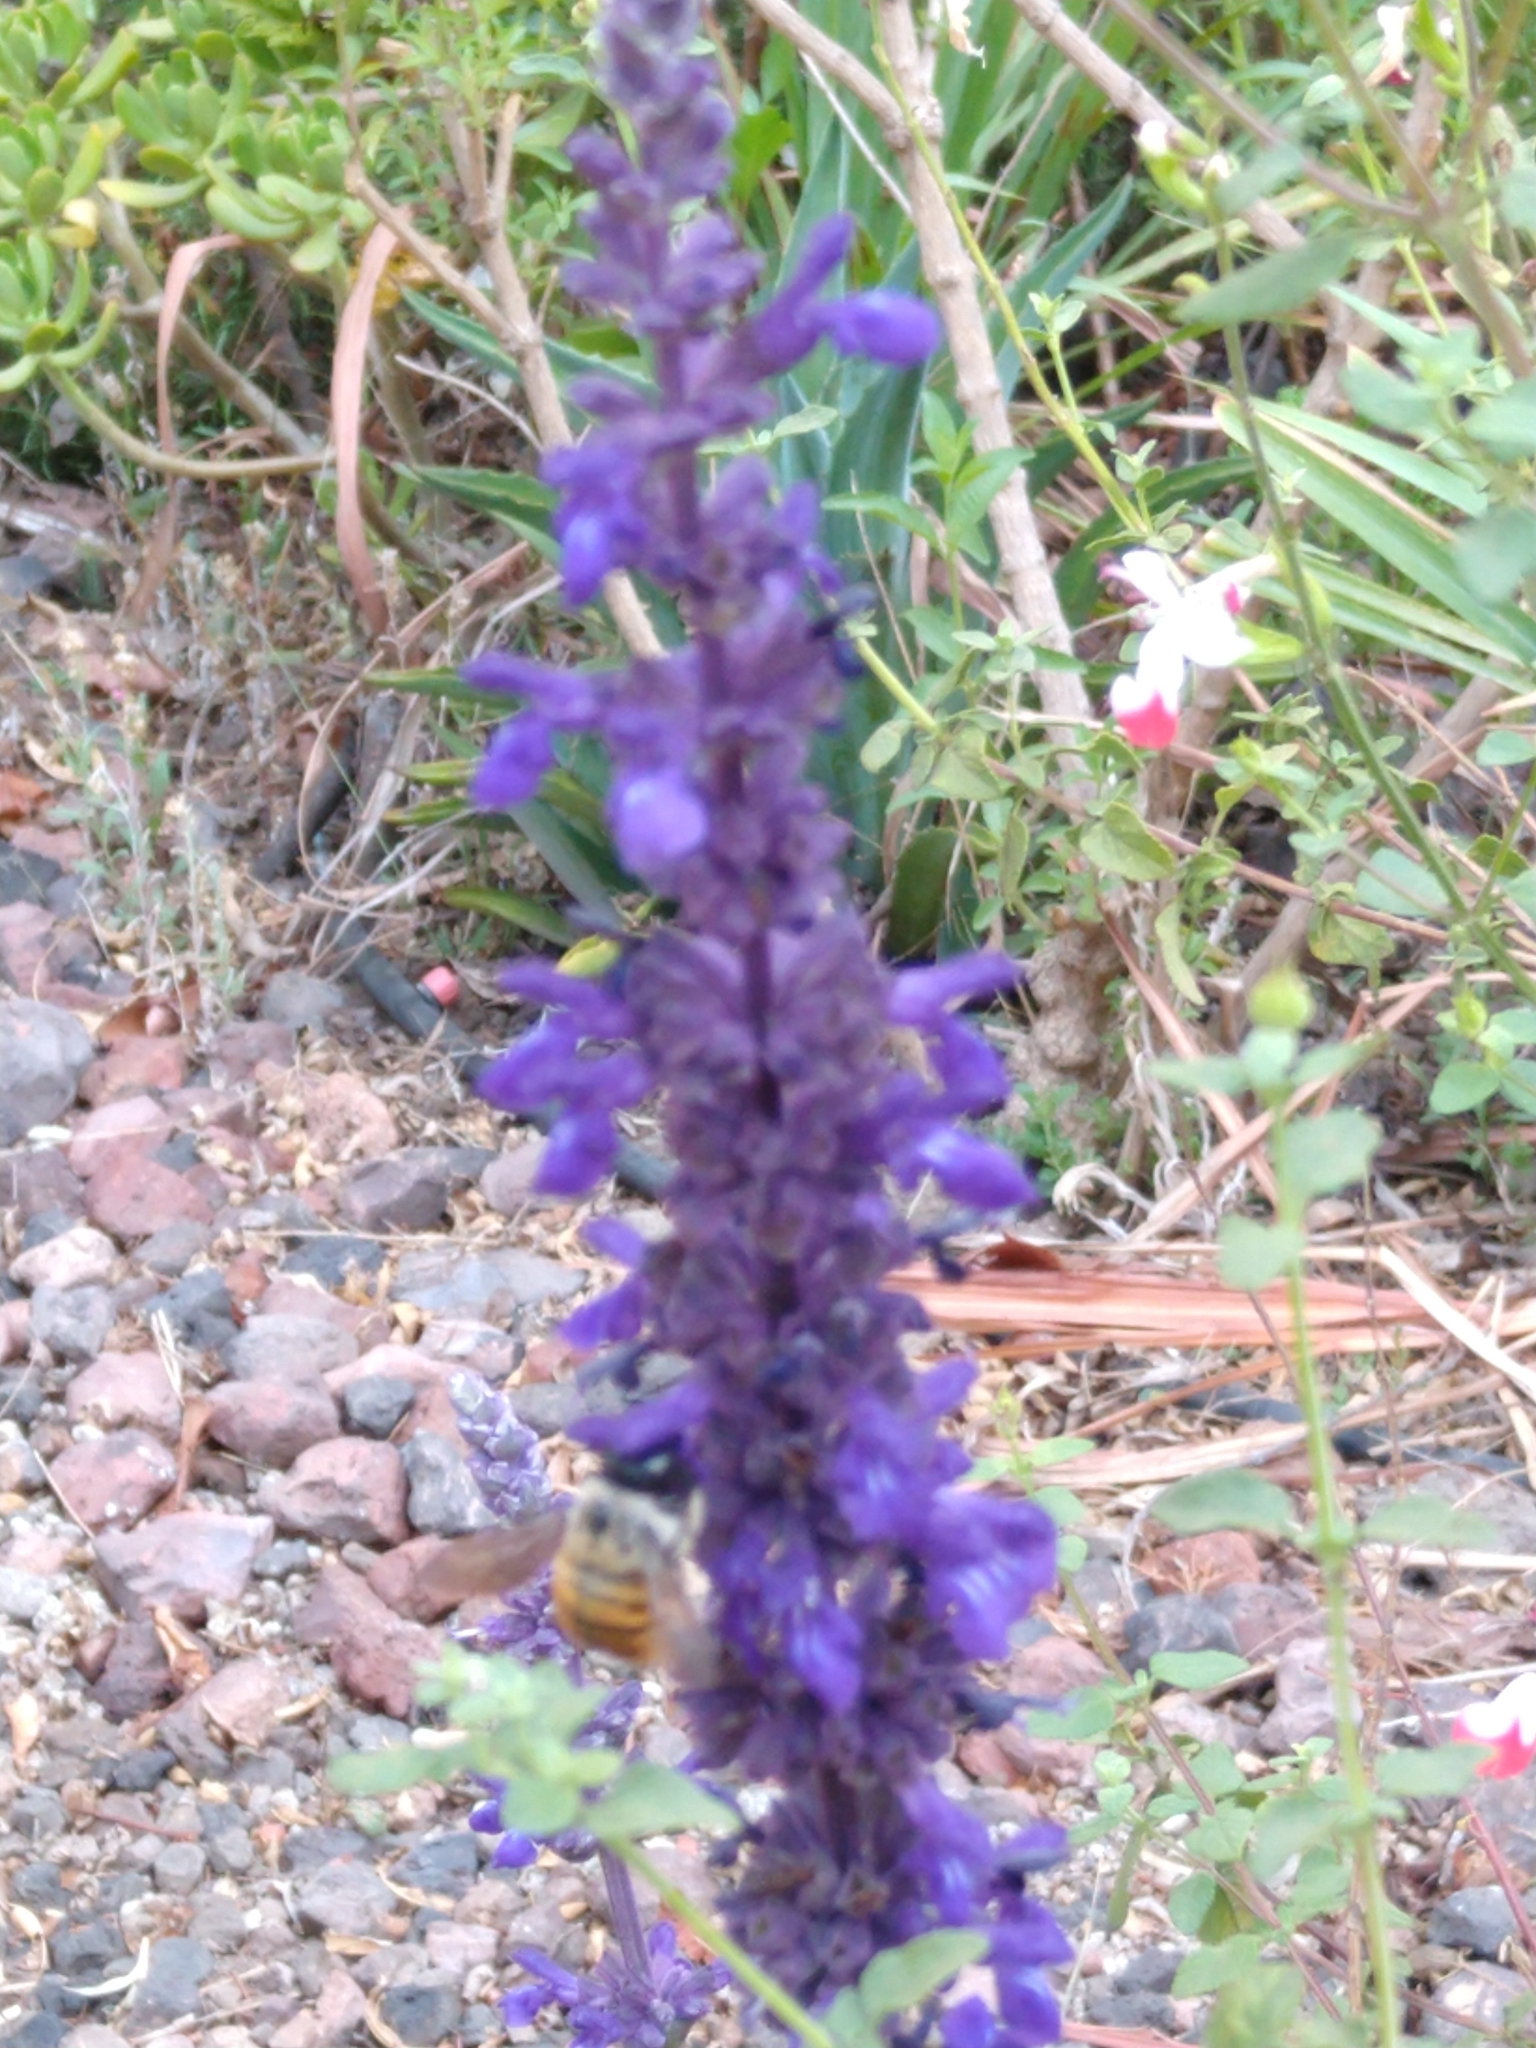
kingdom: Animalia
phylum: Arthropoda
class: Insecta
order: Hymenoptera
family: Apidae
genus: Xylocopa
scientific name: Xylocopa tabaniformis
